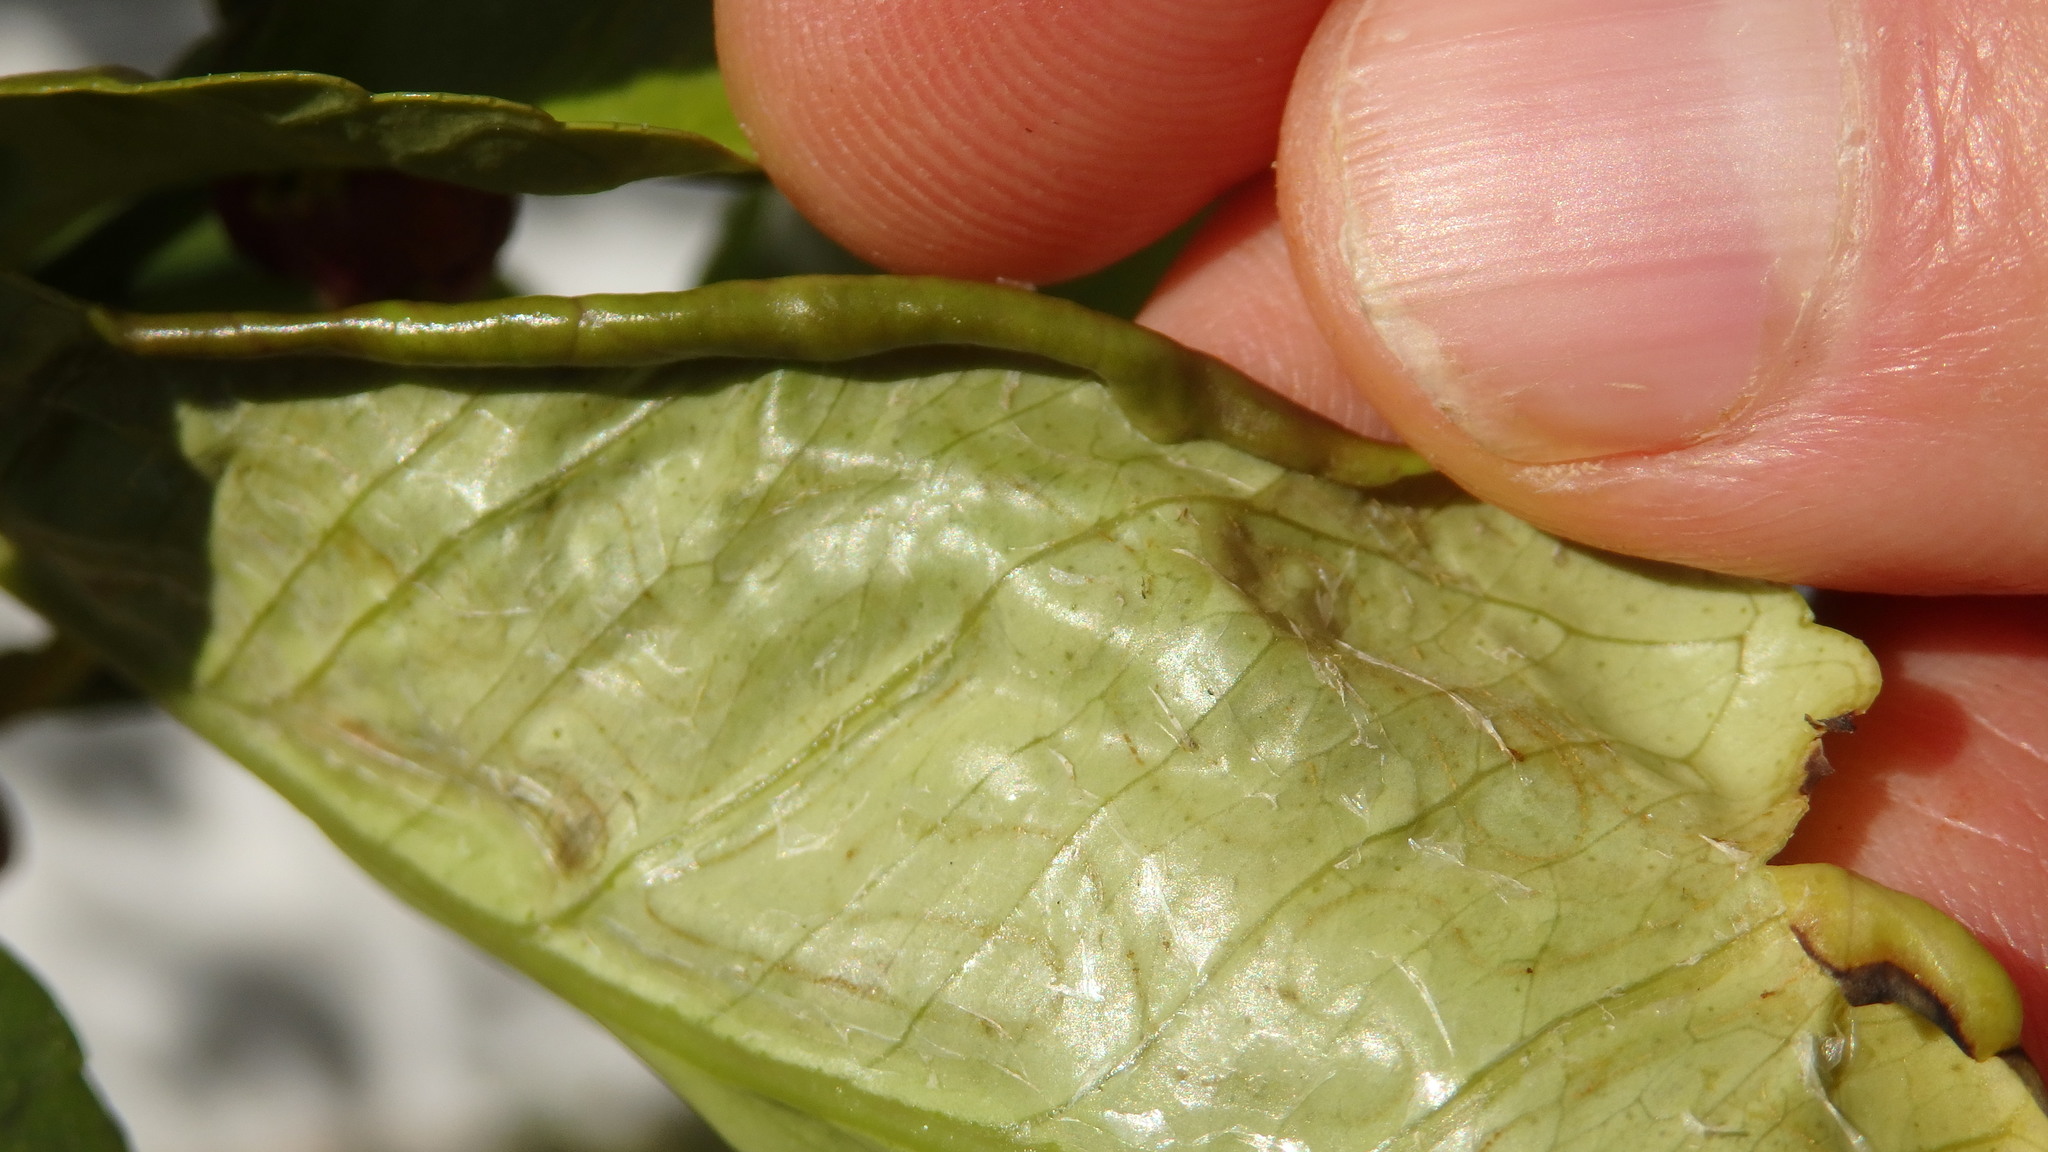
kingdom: Animalia
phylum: Arthropoda
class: Insecta
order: Lepidoptera
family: Gracillariidae
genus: Phyllocnistis
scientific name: Phyllocnistis citrella
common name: Citrus leafminer
